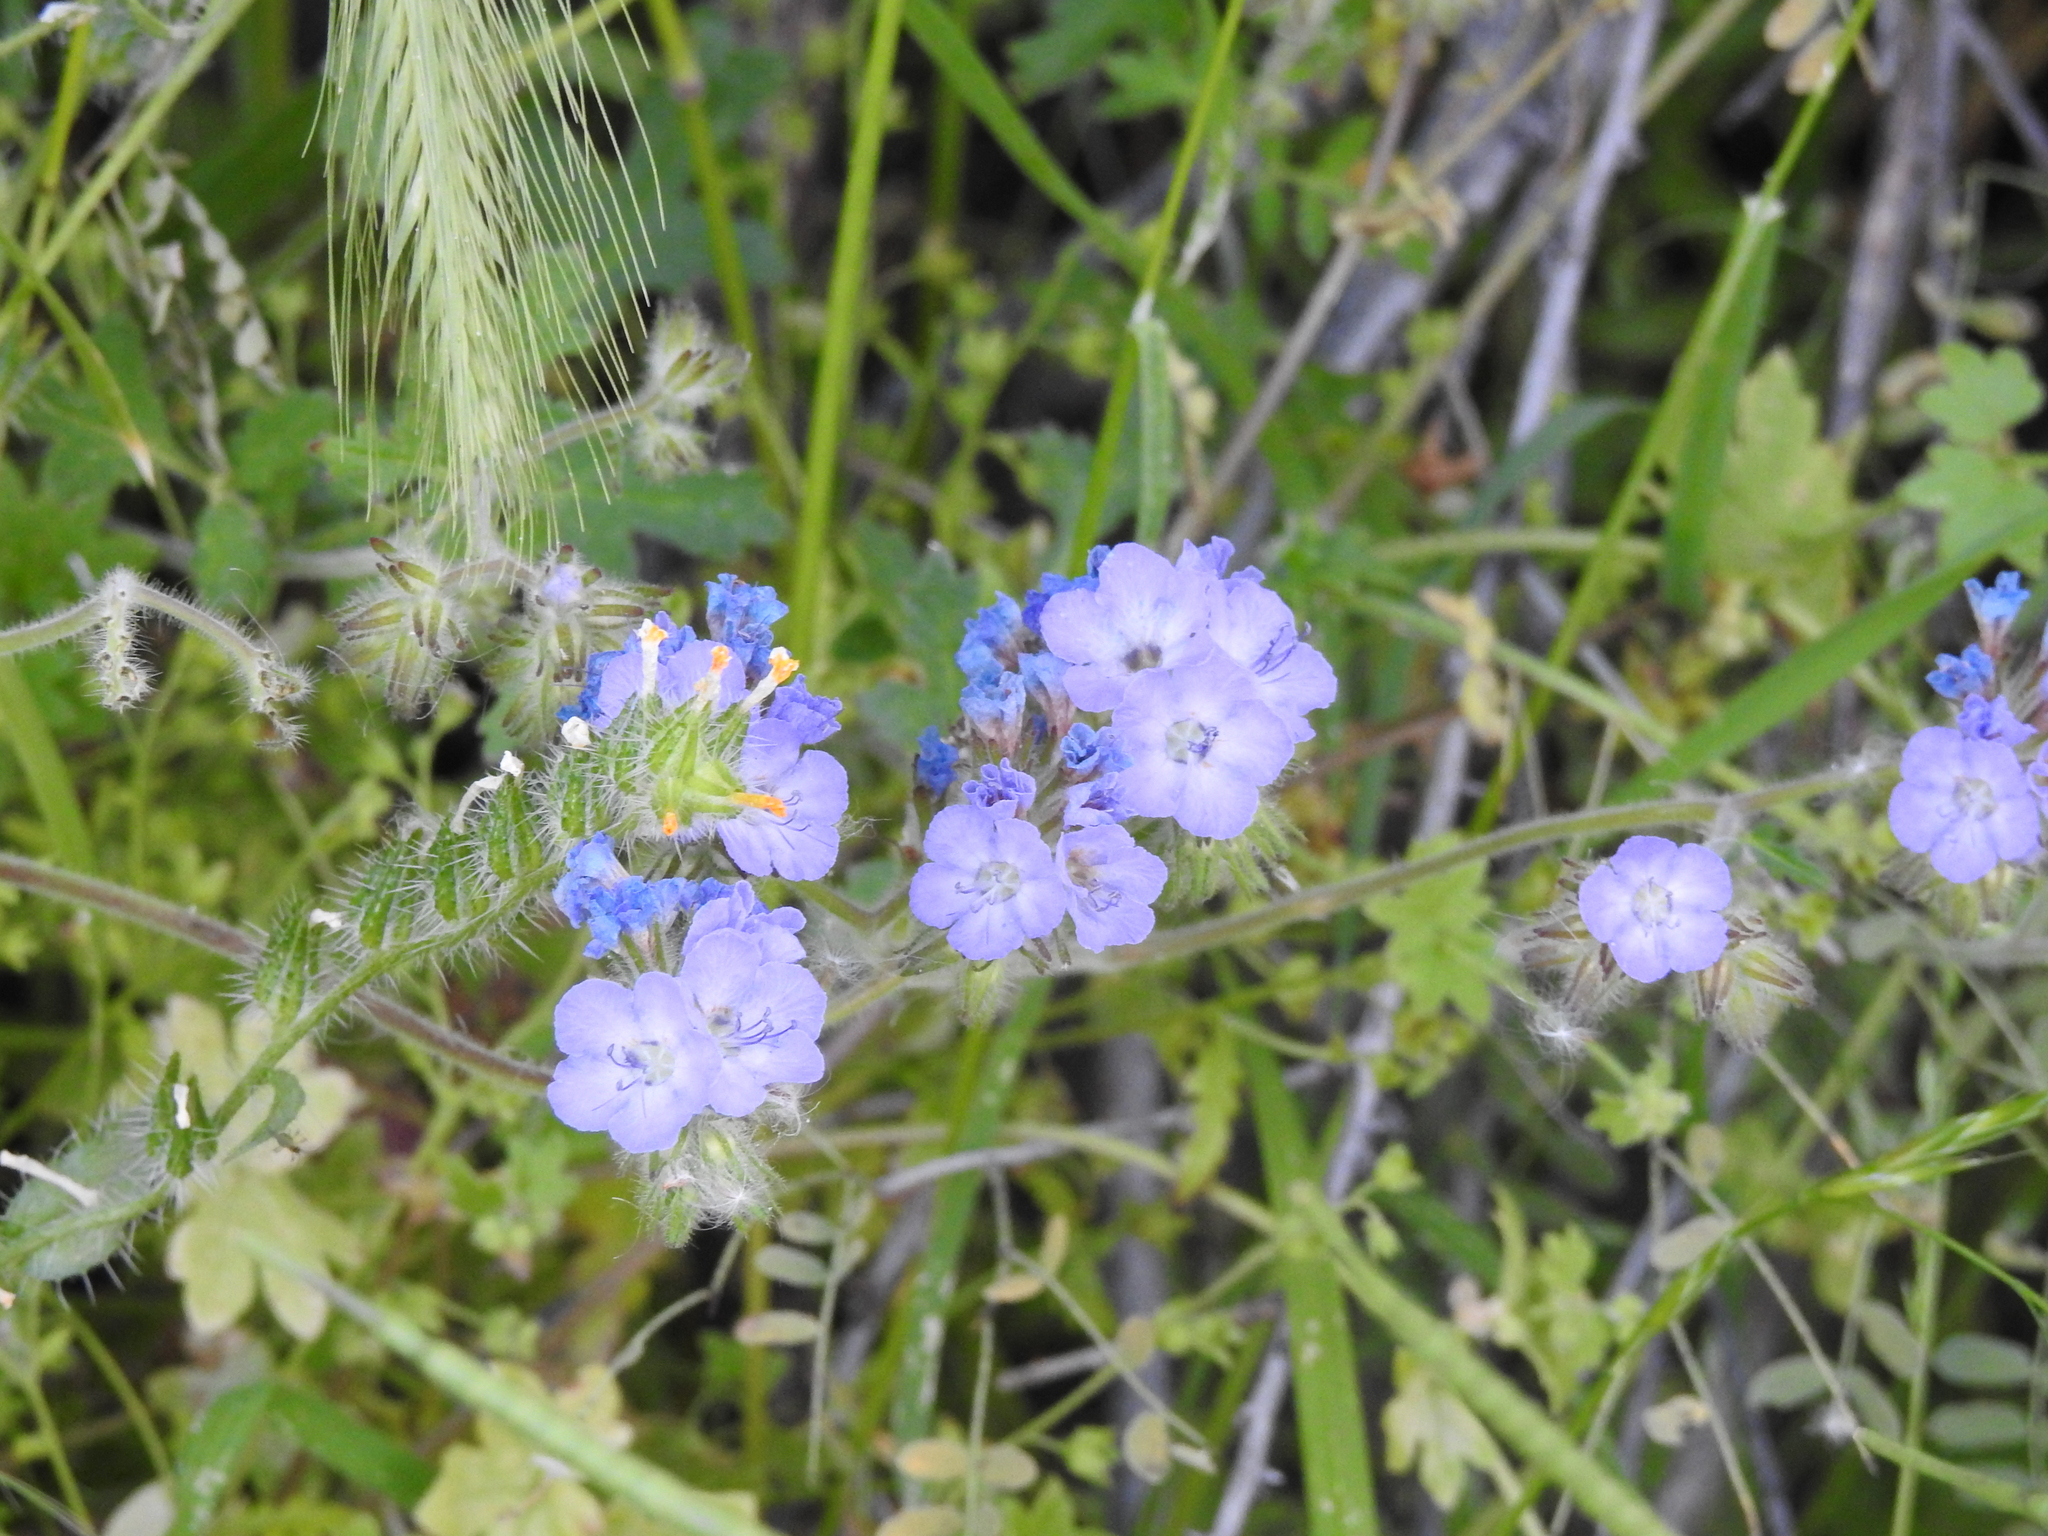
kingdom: Plantae
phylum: Tracheophyta
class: Magnoliopsida
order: Boraginales
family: Hydrophyllaceae
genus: Phacelia
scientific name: Phacelia distans
